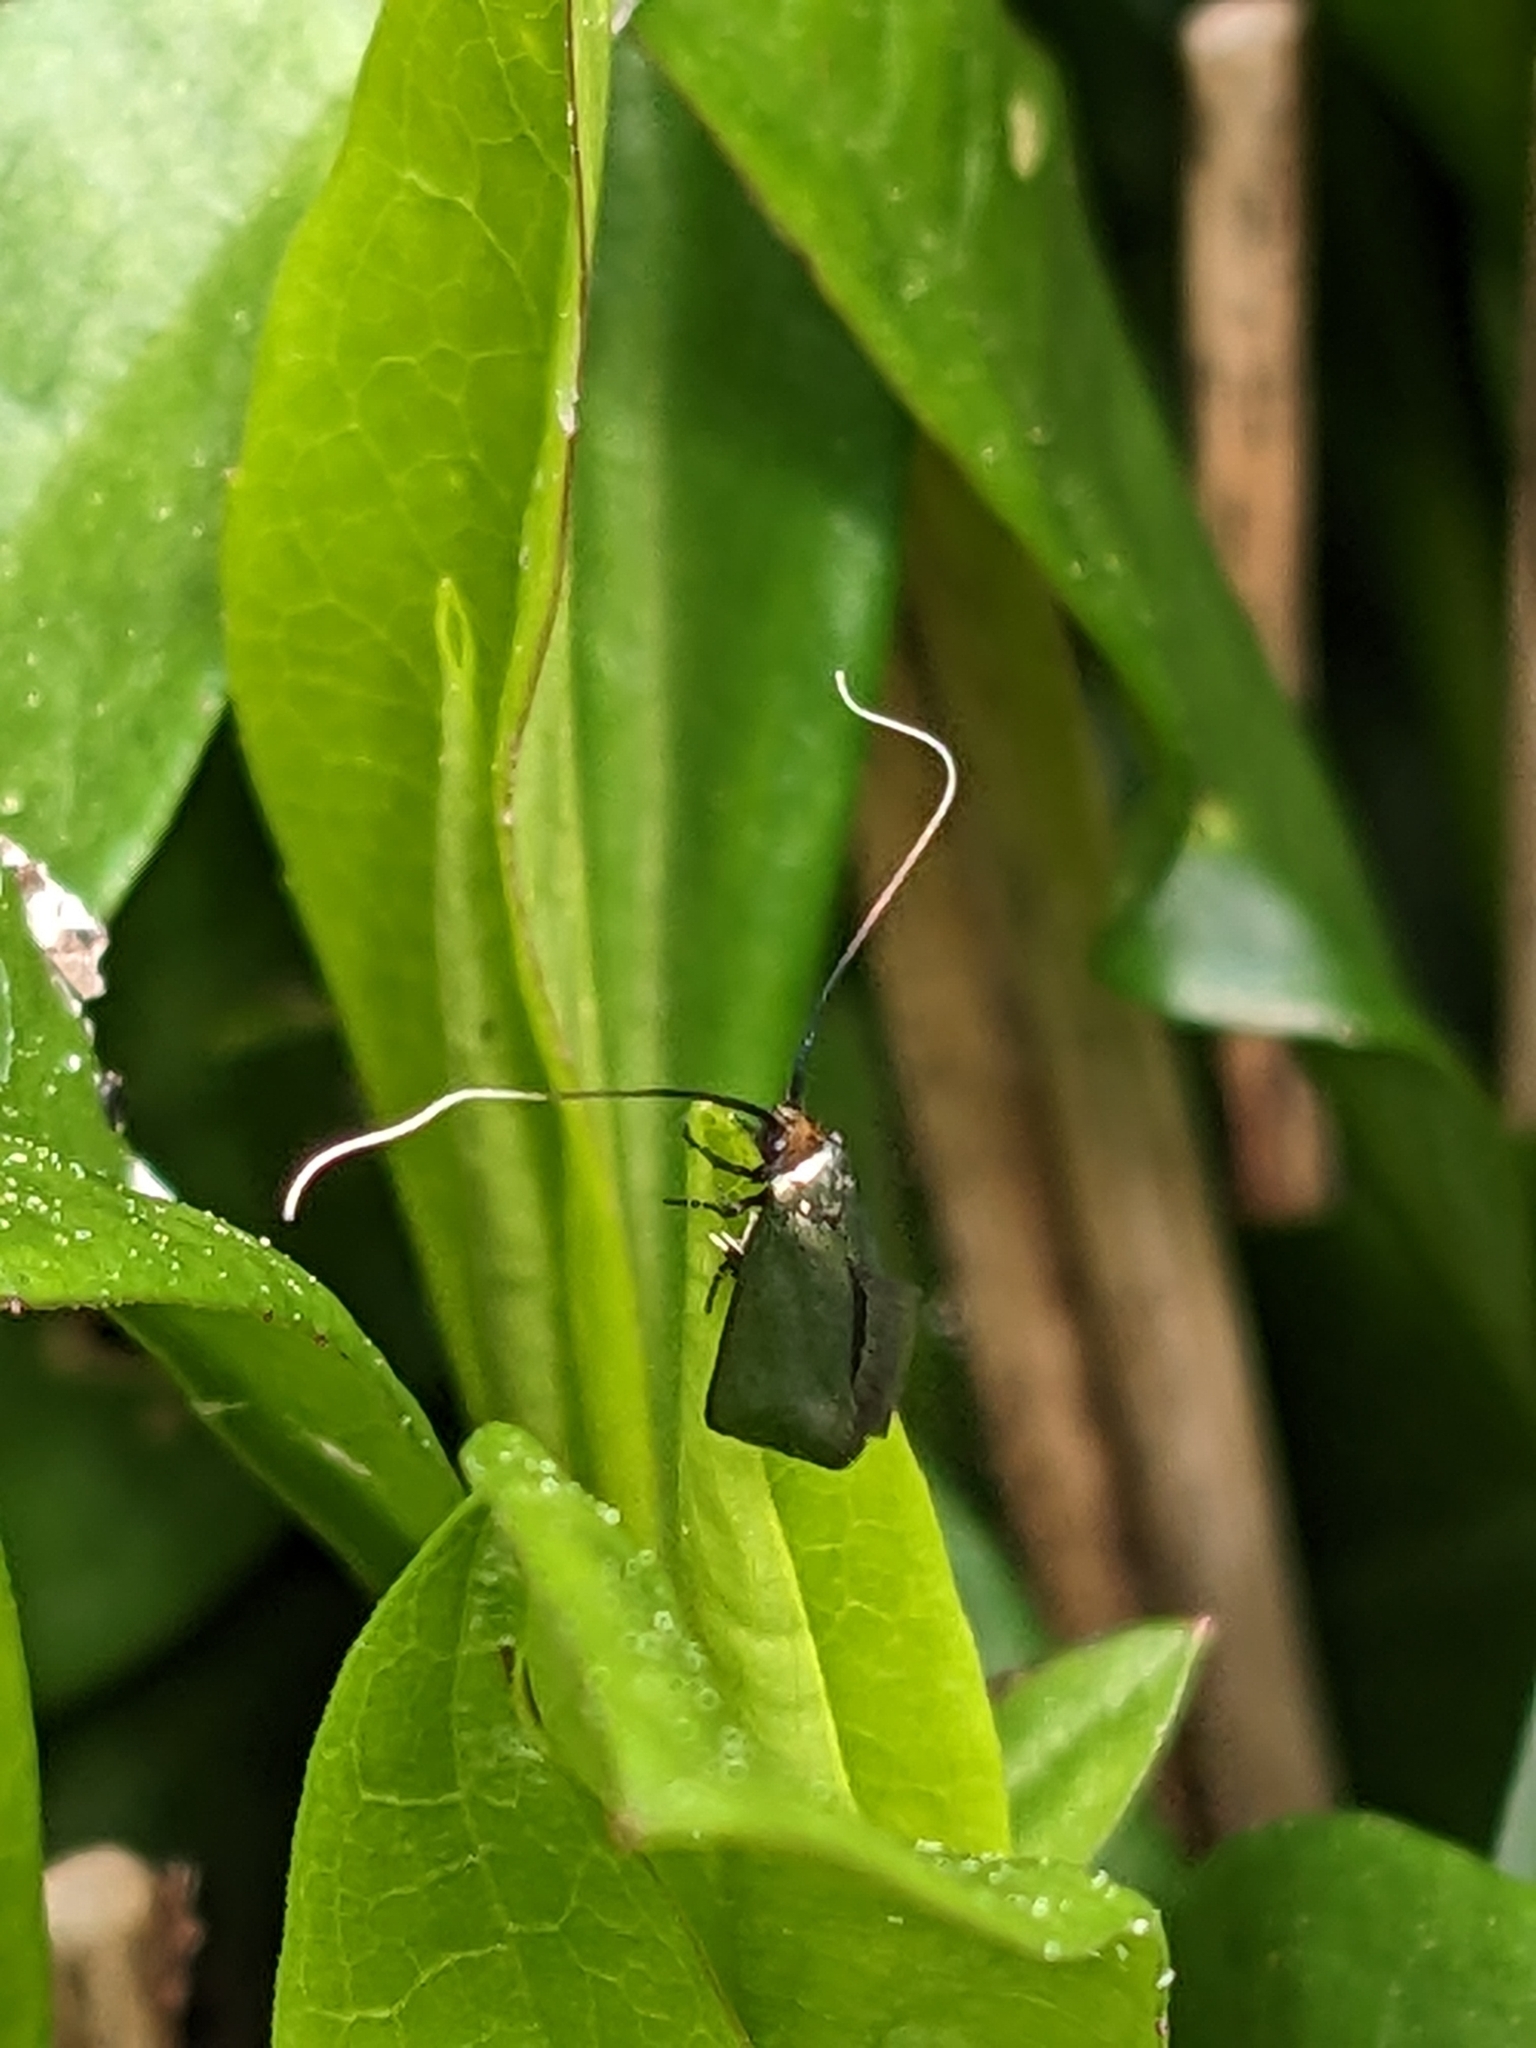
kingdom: Animalia
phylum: Arthropoda
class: Insecta
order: Lepidoptera
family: Adelidae
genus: Adela
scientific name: Adela viridella
